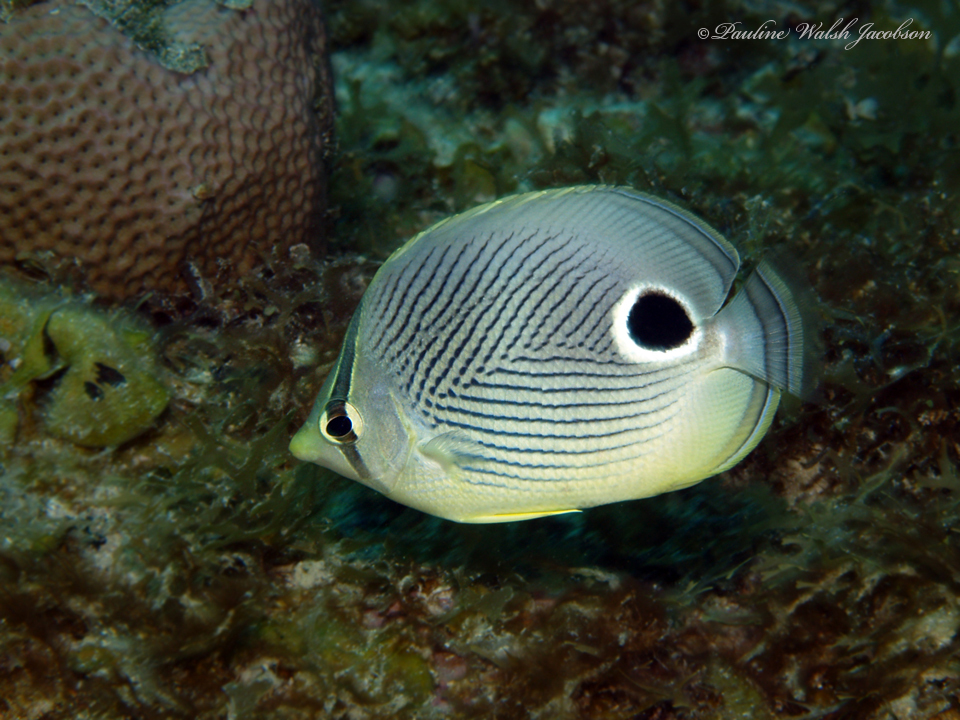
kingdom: Animalia
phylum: Chordata
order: Perciformes
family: Chaetodontidae
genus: Chaetodon
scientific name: Chaetodon capistratus
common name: Kete
